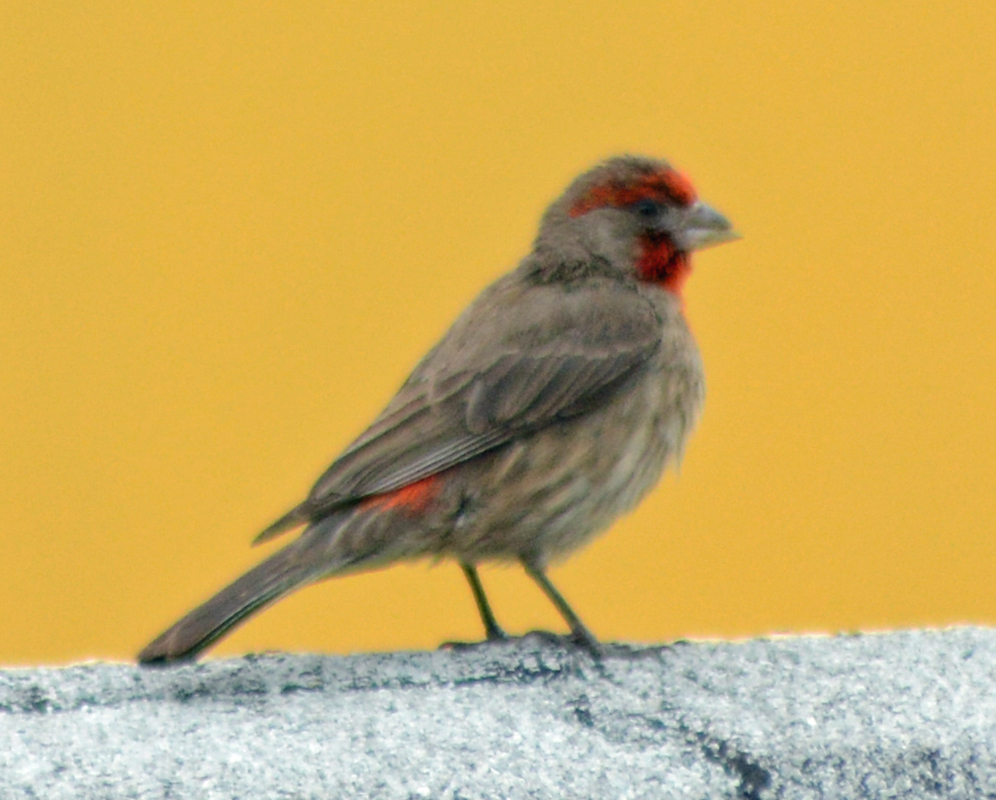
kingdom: Animalia
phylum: Chordata
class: Aves
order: Passeriformes
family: Fringillidae
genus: Haemorhous
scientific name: Haemorhous mexicanus
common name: House finch
